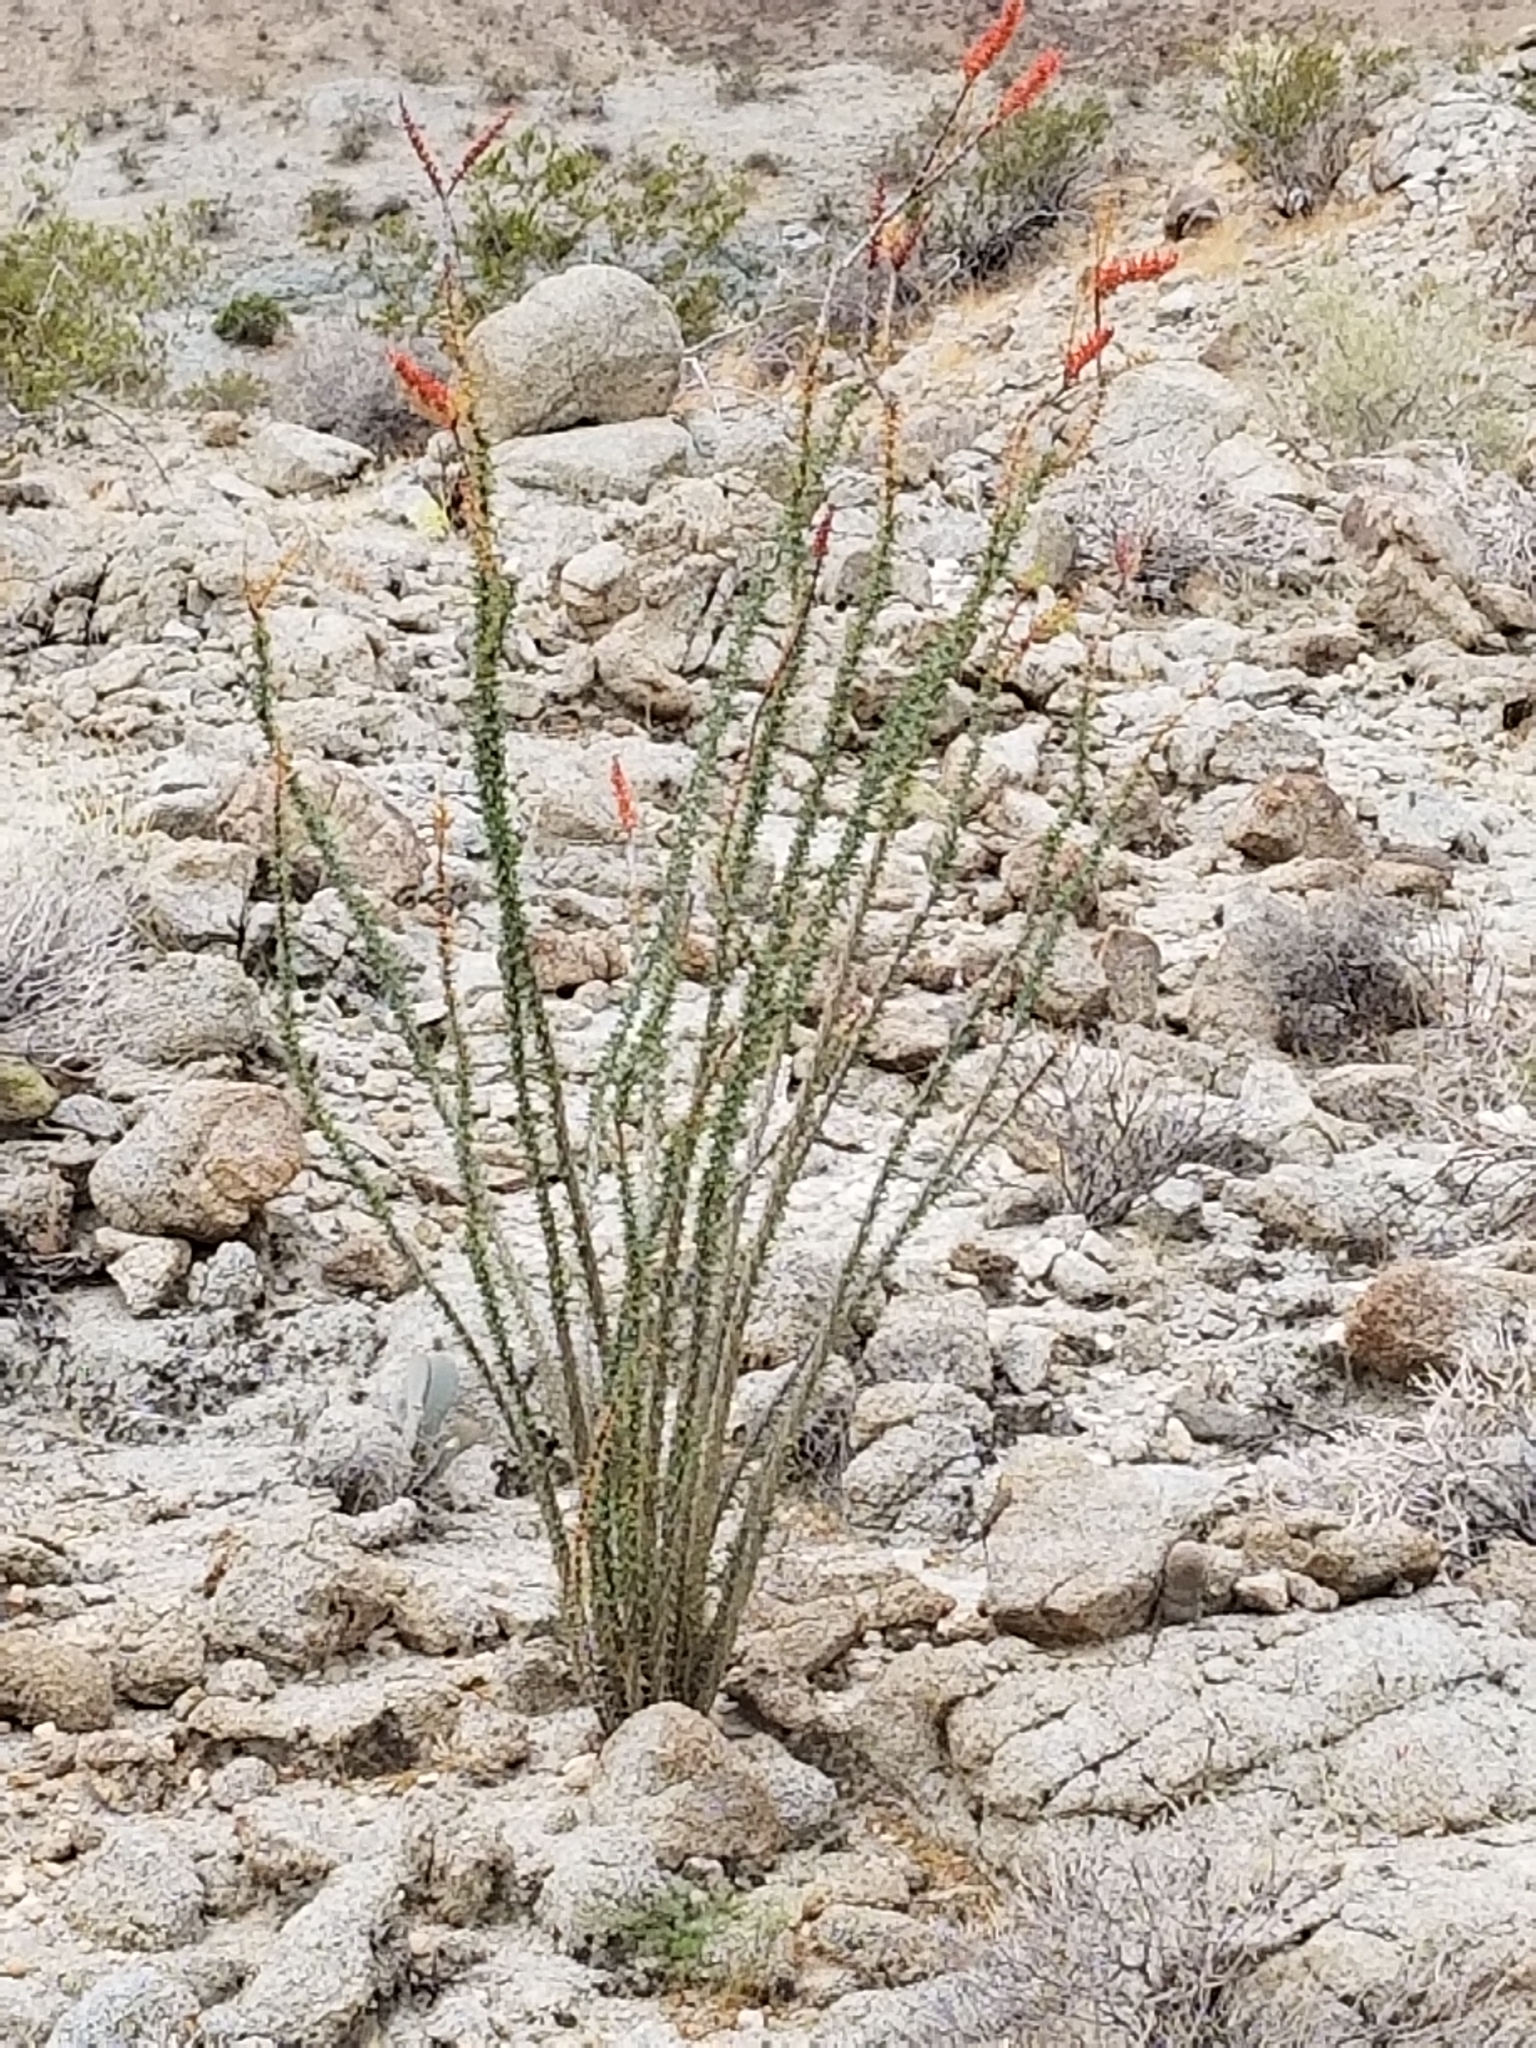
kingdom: Plantae
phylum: Tracheophyta
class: Magnoliopsida
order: Ericales
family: Fouquieriaceae
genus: Fouquieria
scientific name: Fouquieria splendens
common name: Vine-cactus
